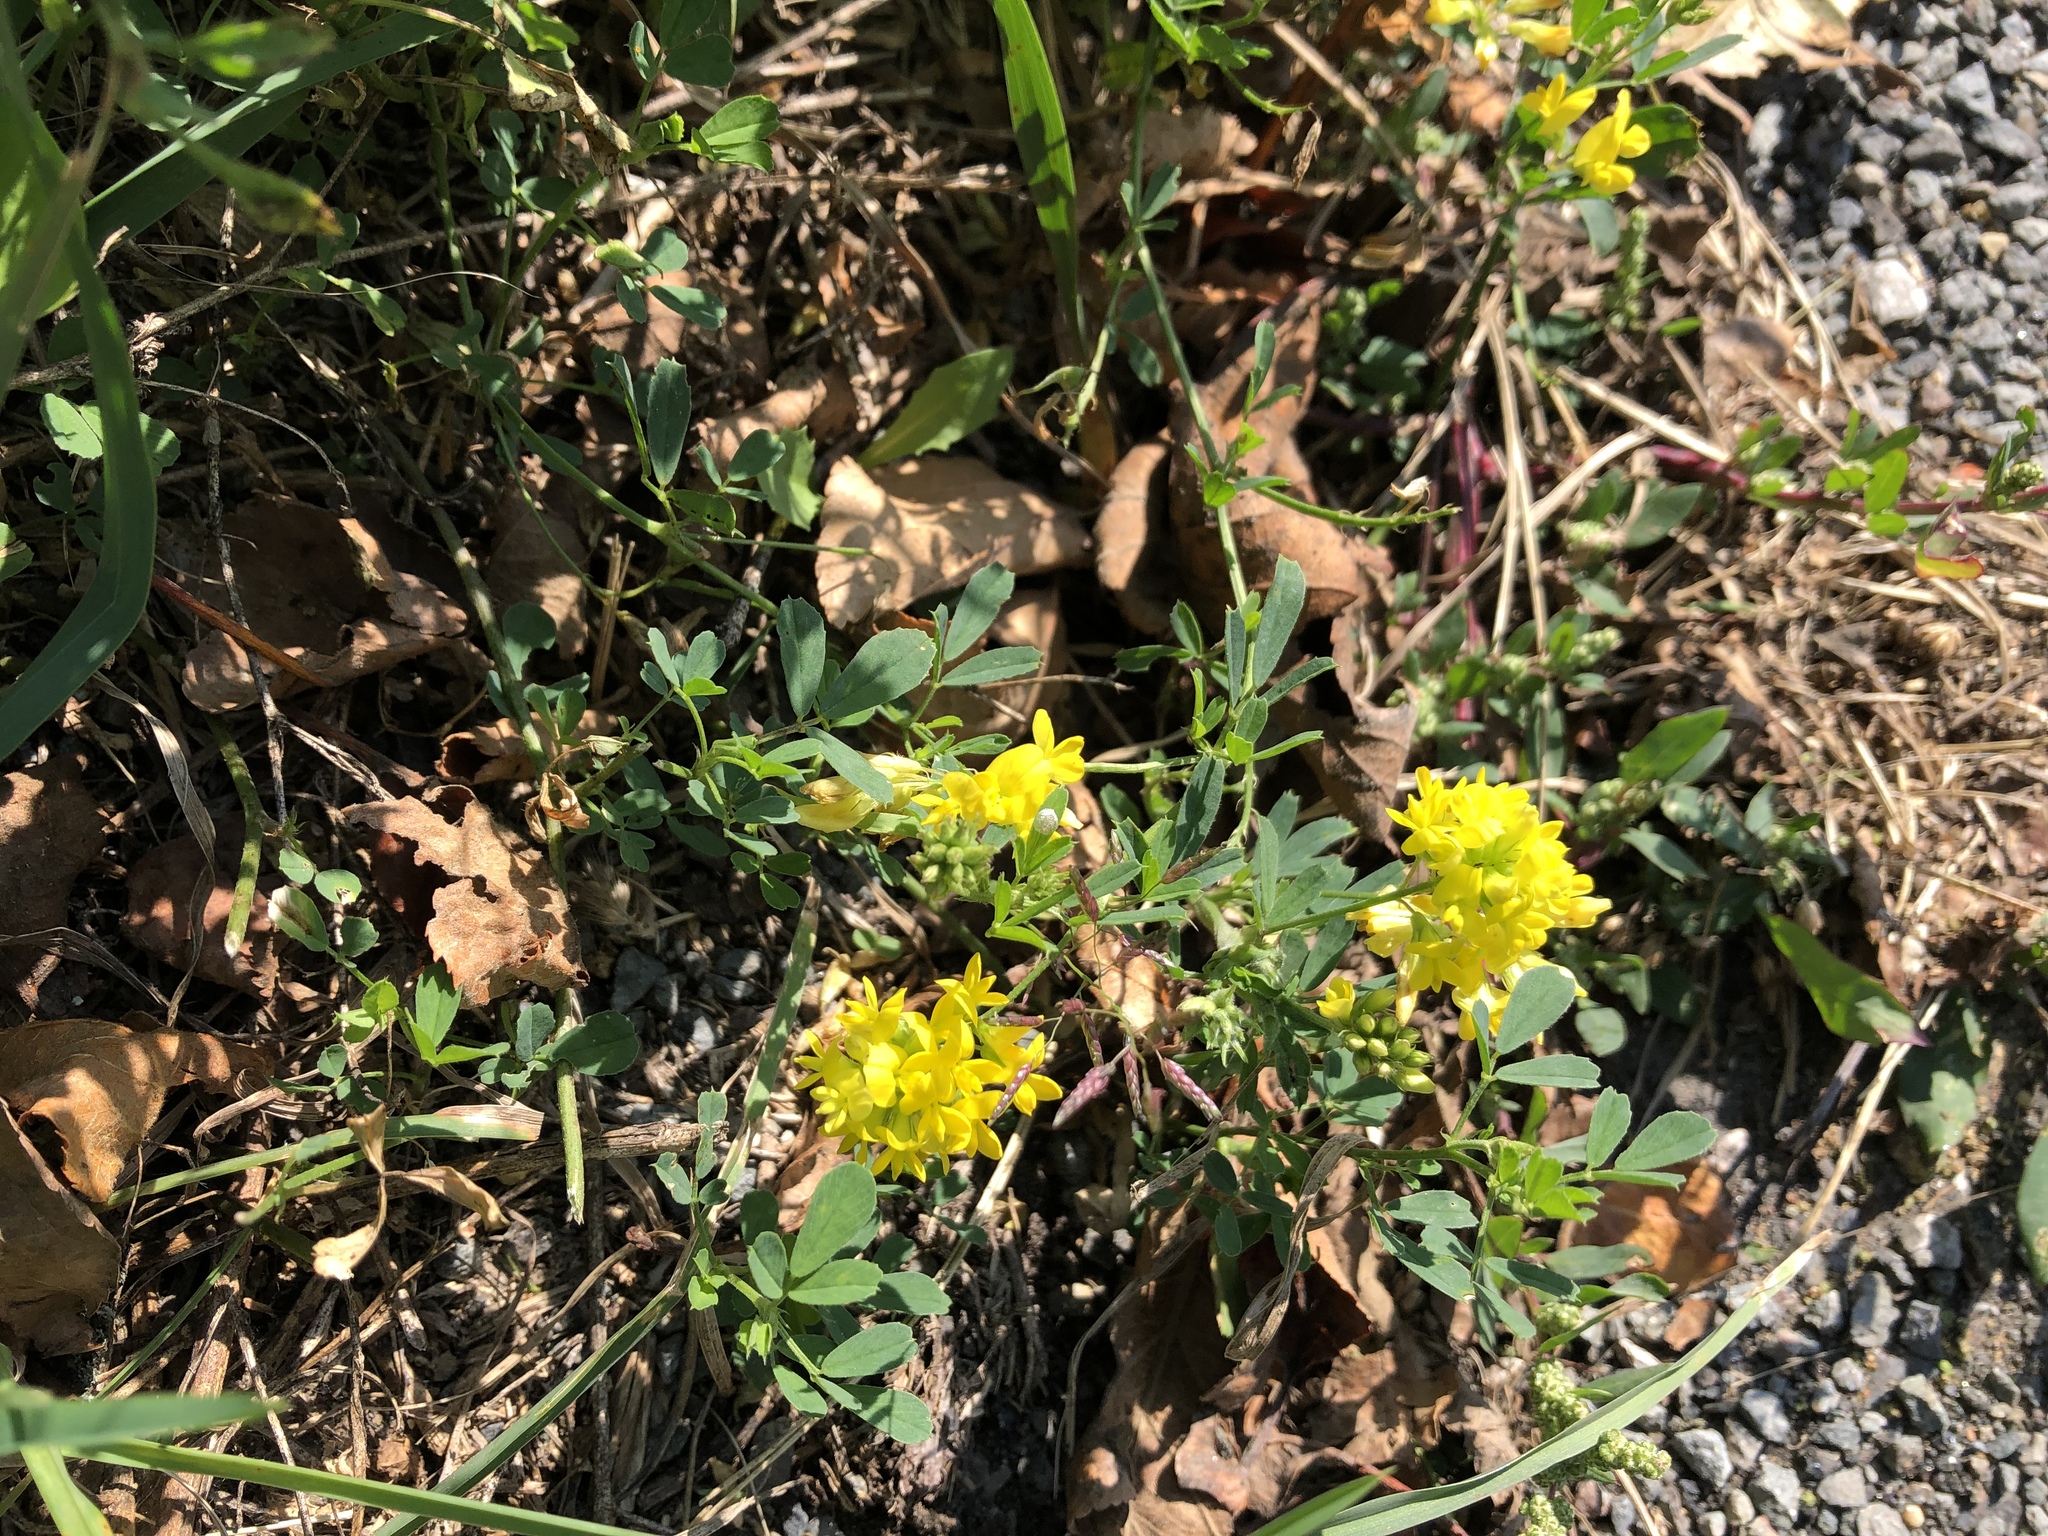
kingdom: Plantae
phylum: Tracheophyta
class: Magnoliopsida
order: Fabales
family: Fabaceae
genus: Medicago
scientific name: Medicago falcata
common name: Sickle medick
